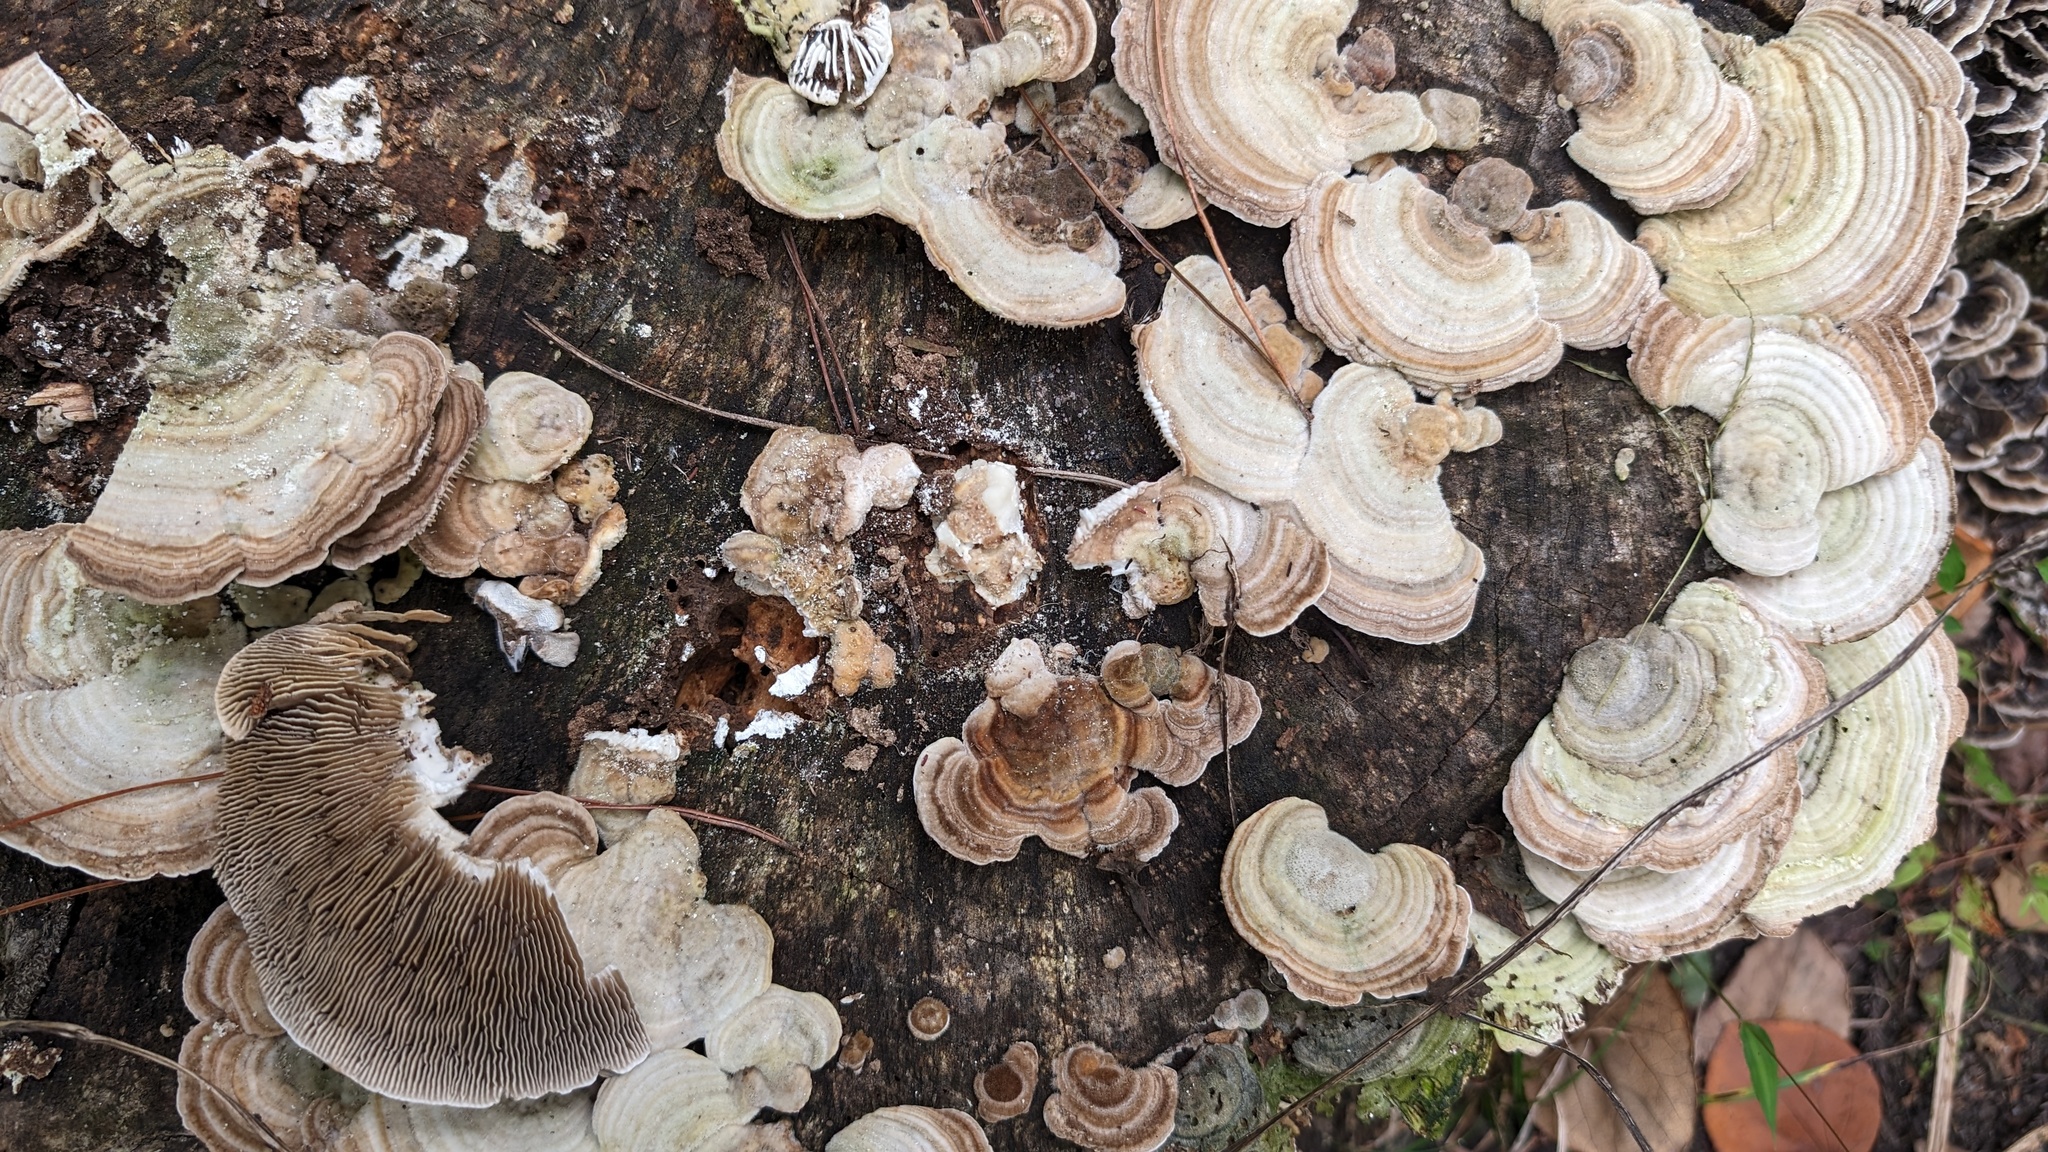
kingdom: Fungi
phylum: Basidiomycota
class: Agaricomycetes
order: Polyporales
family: Polyporaceae
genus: Lenzites
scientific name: Lenzites betulinus
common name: Birch mazegill
